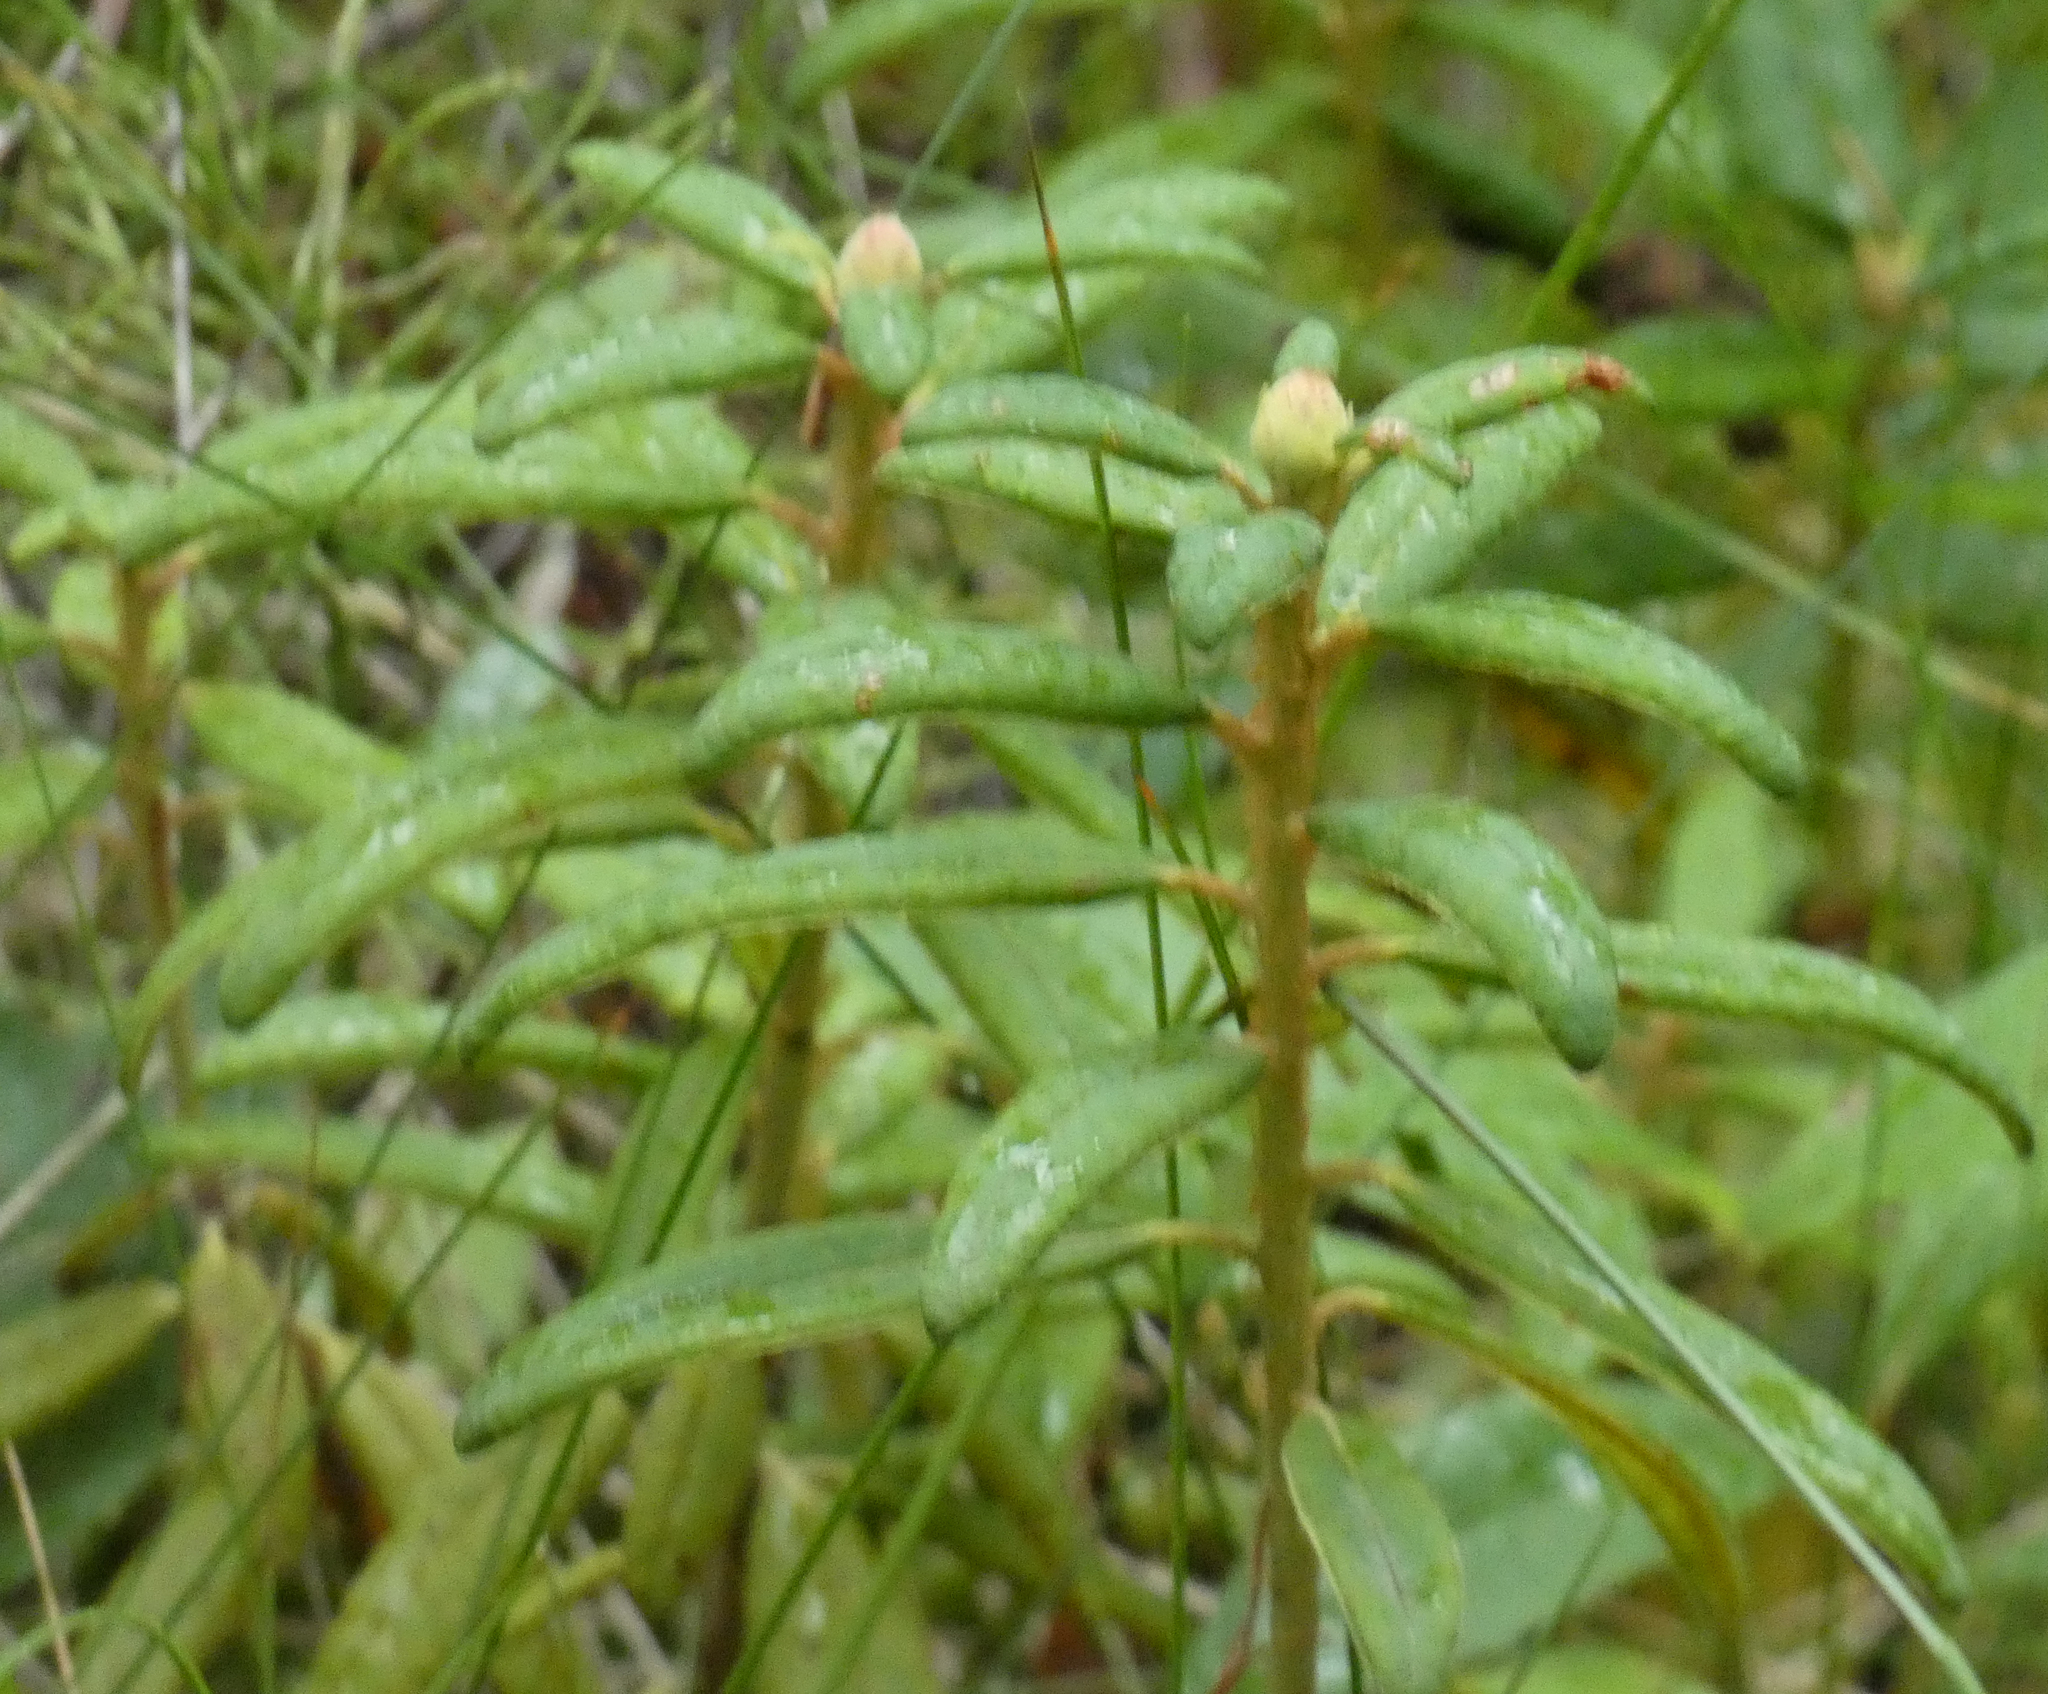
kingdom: Plantae
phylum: Tracheophyta
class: Magnoliopsida
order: Ericales
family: Ericaceae
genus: Rhododendron
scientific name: Rhododendron groenlandicum
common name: Bog labrador tea
